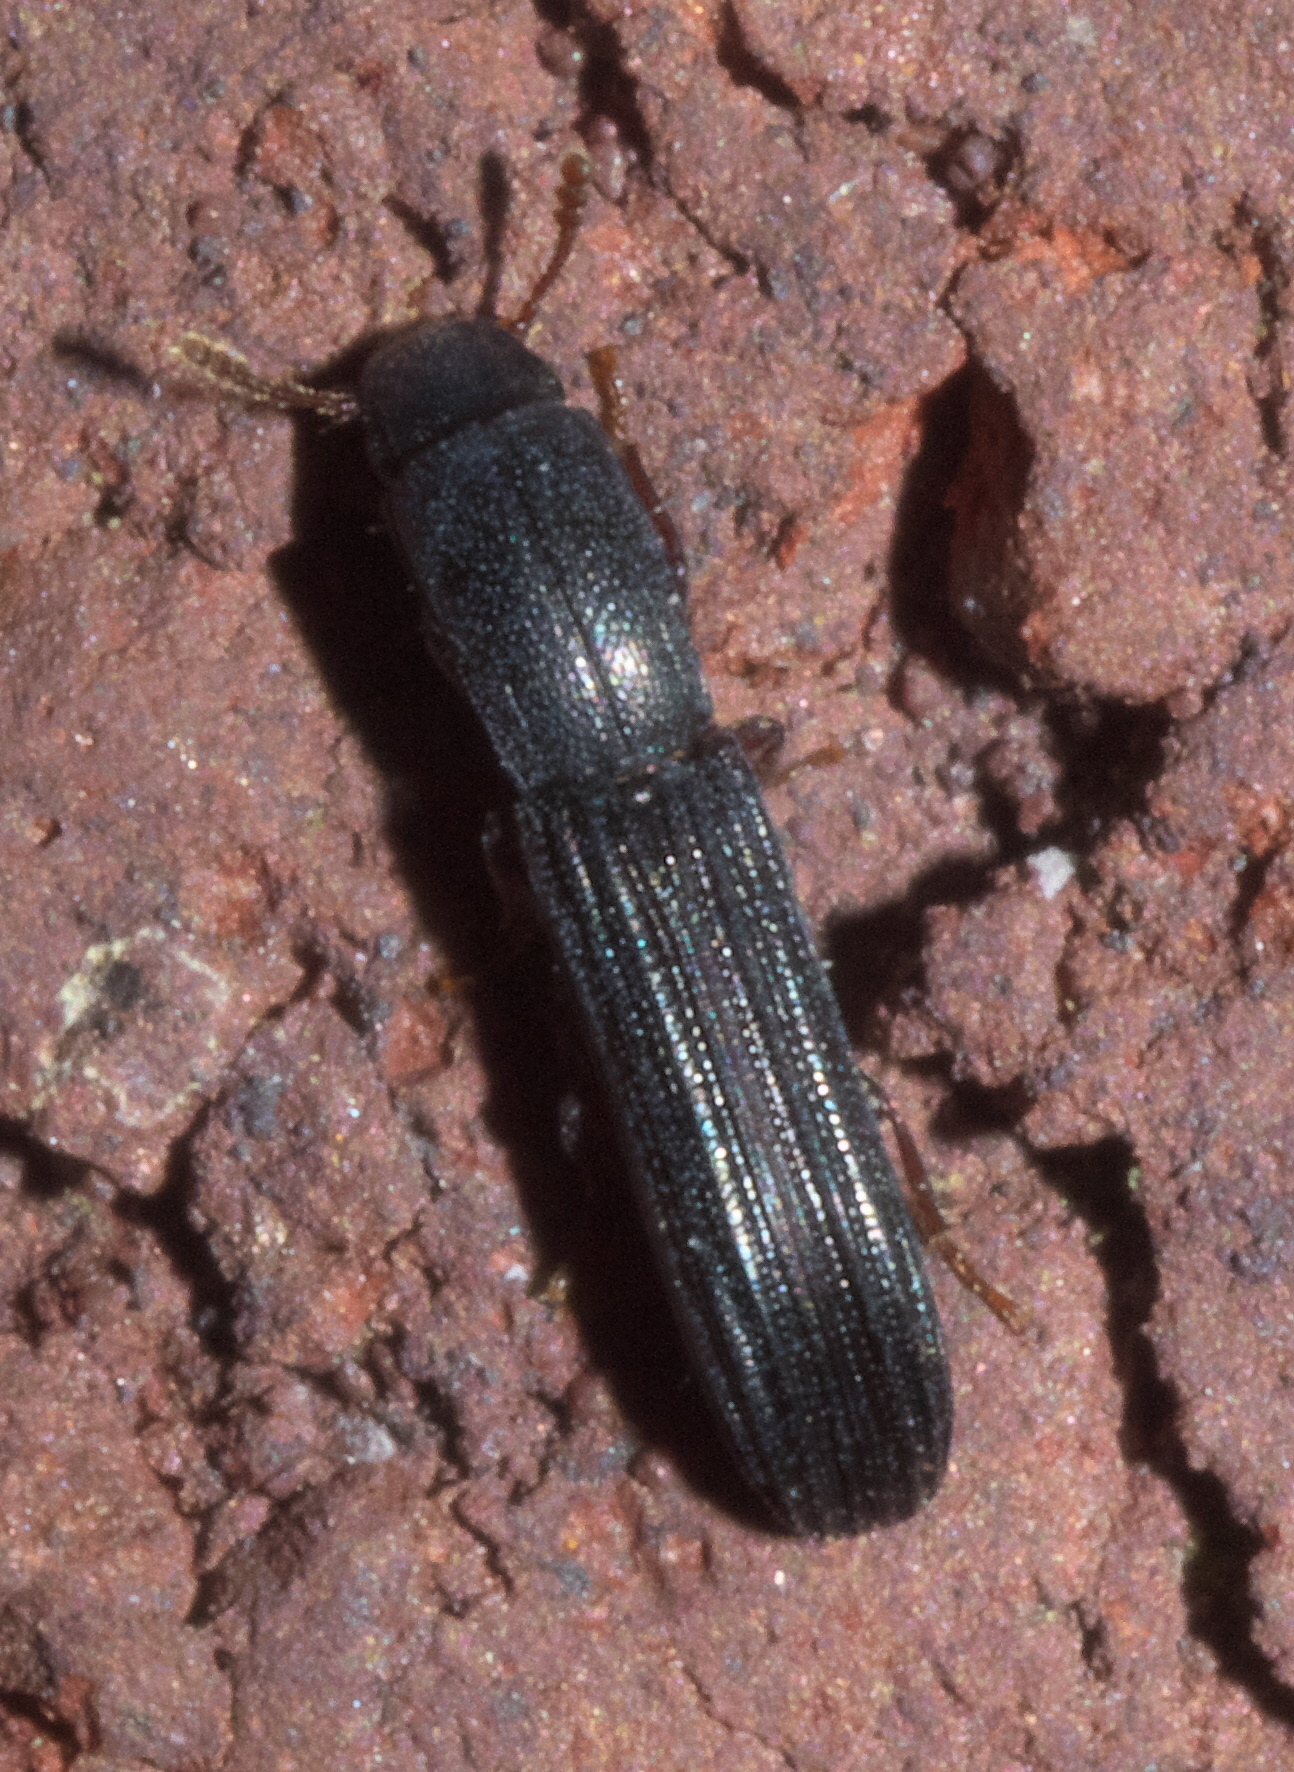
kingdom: Animalia
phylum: Arthropoda
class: Insecta
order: Coleoptera
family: Zopheridae
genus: Colydium
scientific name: Colydium lineola
